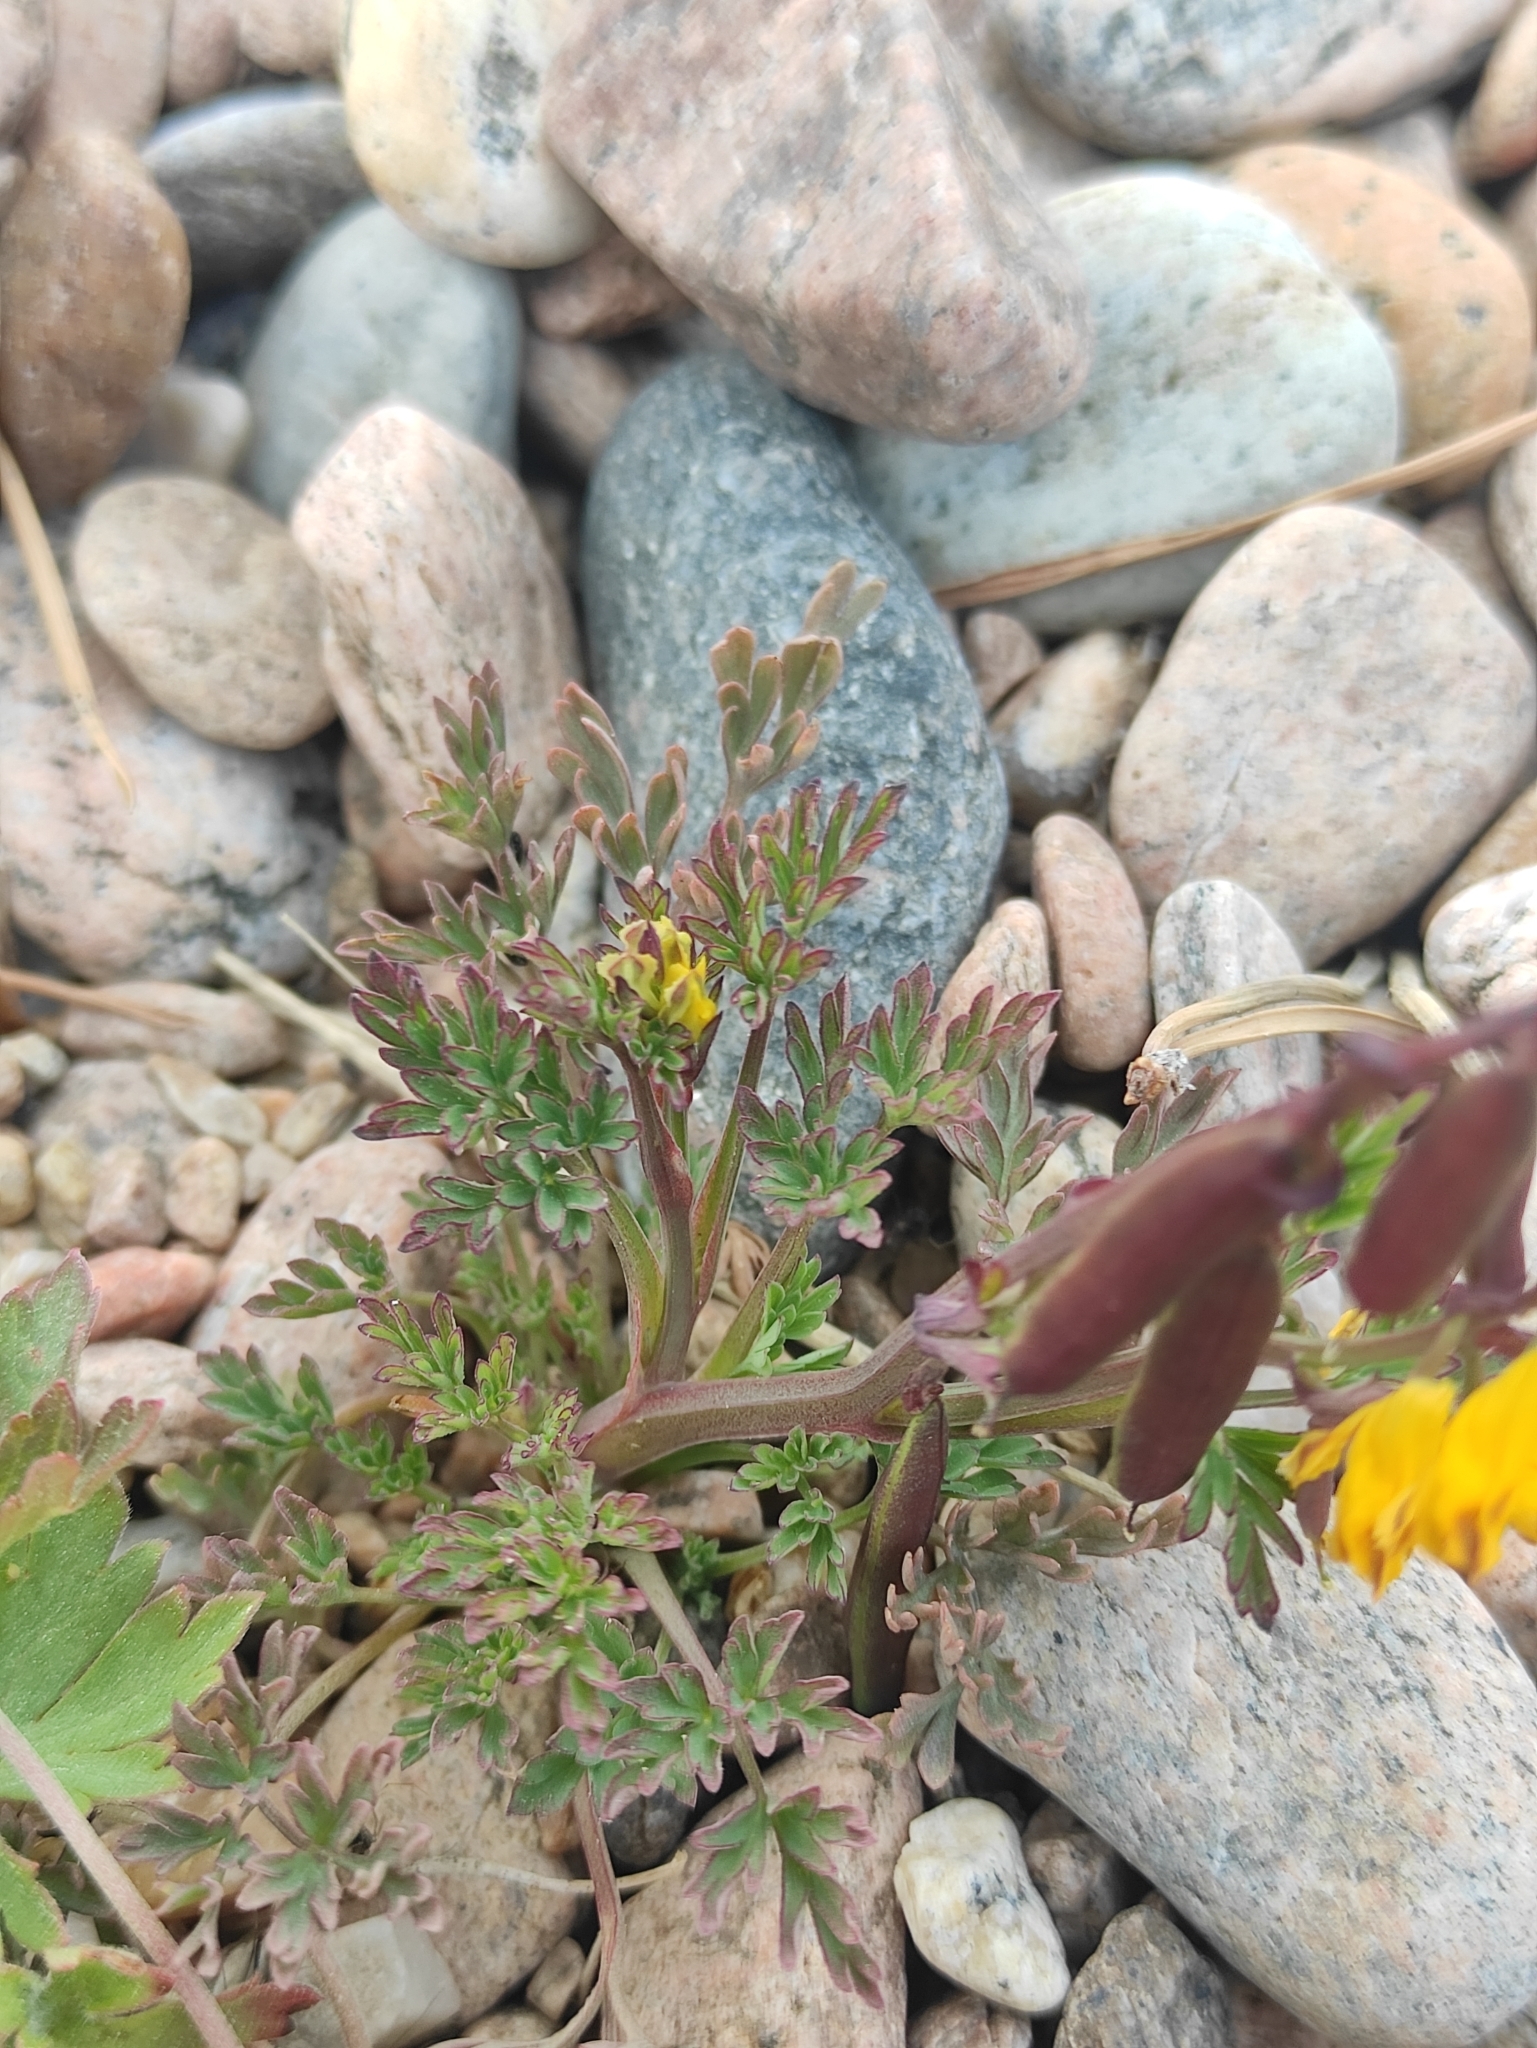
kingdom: Plantae
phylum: Tracheophyta
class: Magnoliopsida
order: Ranunculales
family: Papaveraceae
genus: Corydalis
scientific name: Corydalis impatiens
